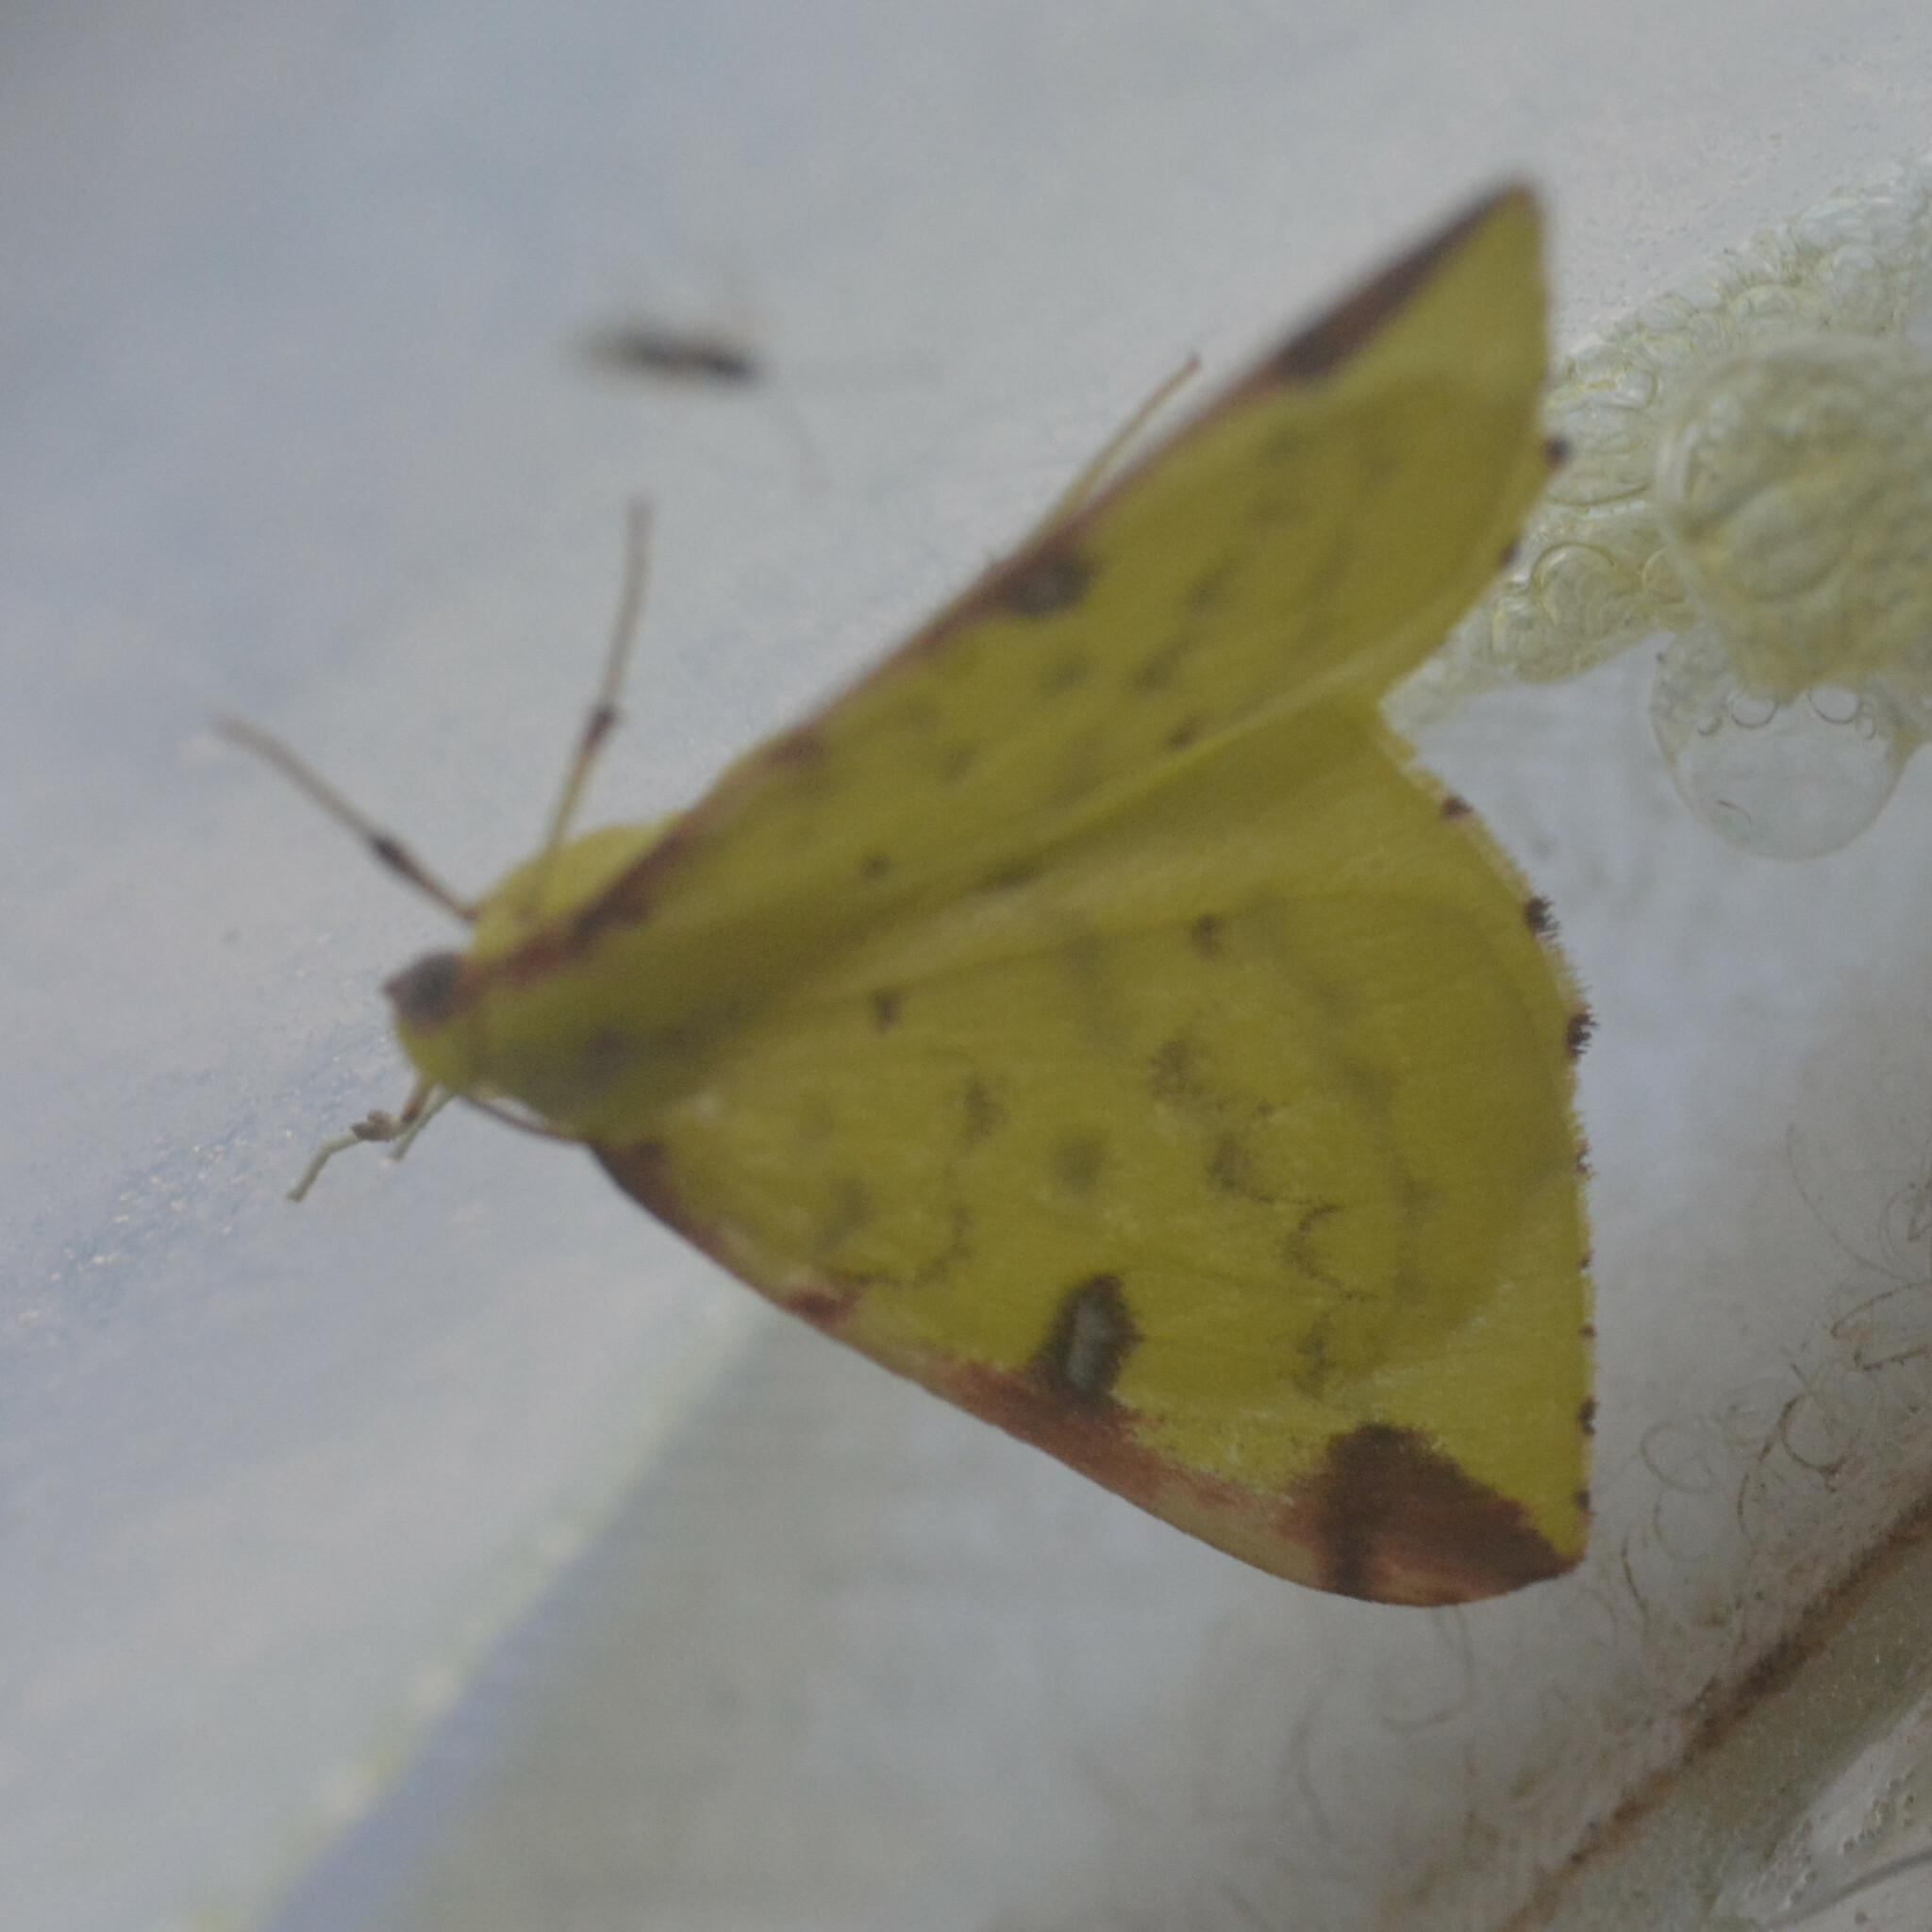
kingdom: Animalia
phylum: Arthropoda
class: Insecta
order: Lepidoptera
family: Geometridae
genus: Opisthograptis
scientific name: Opisthograptis luteolata
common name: Brimstone moth
